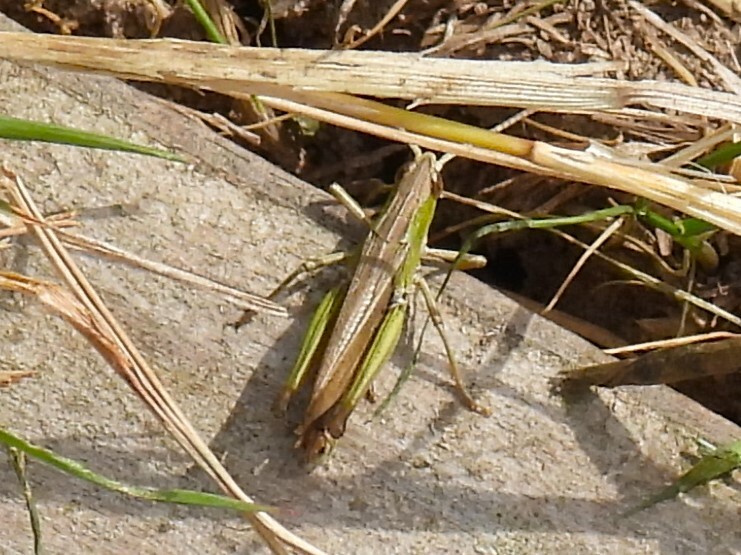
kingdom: Animalia
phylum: Arthropoda
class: Insecta
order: Orthoptera
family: Acrididae
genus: Chorthippus
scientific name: Chorthippus albomarginatus
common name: Lesser marsh grasshopper
